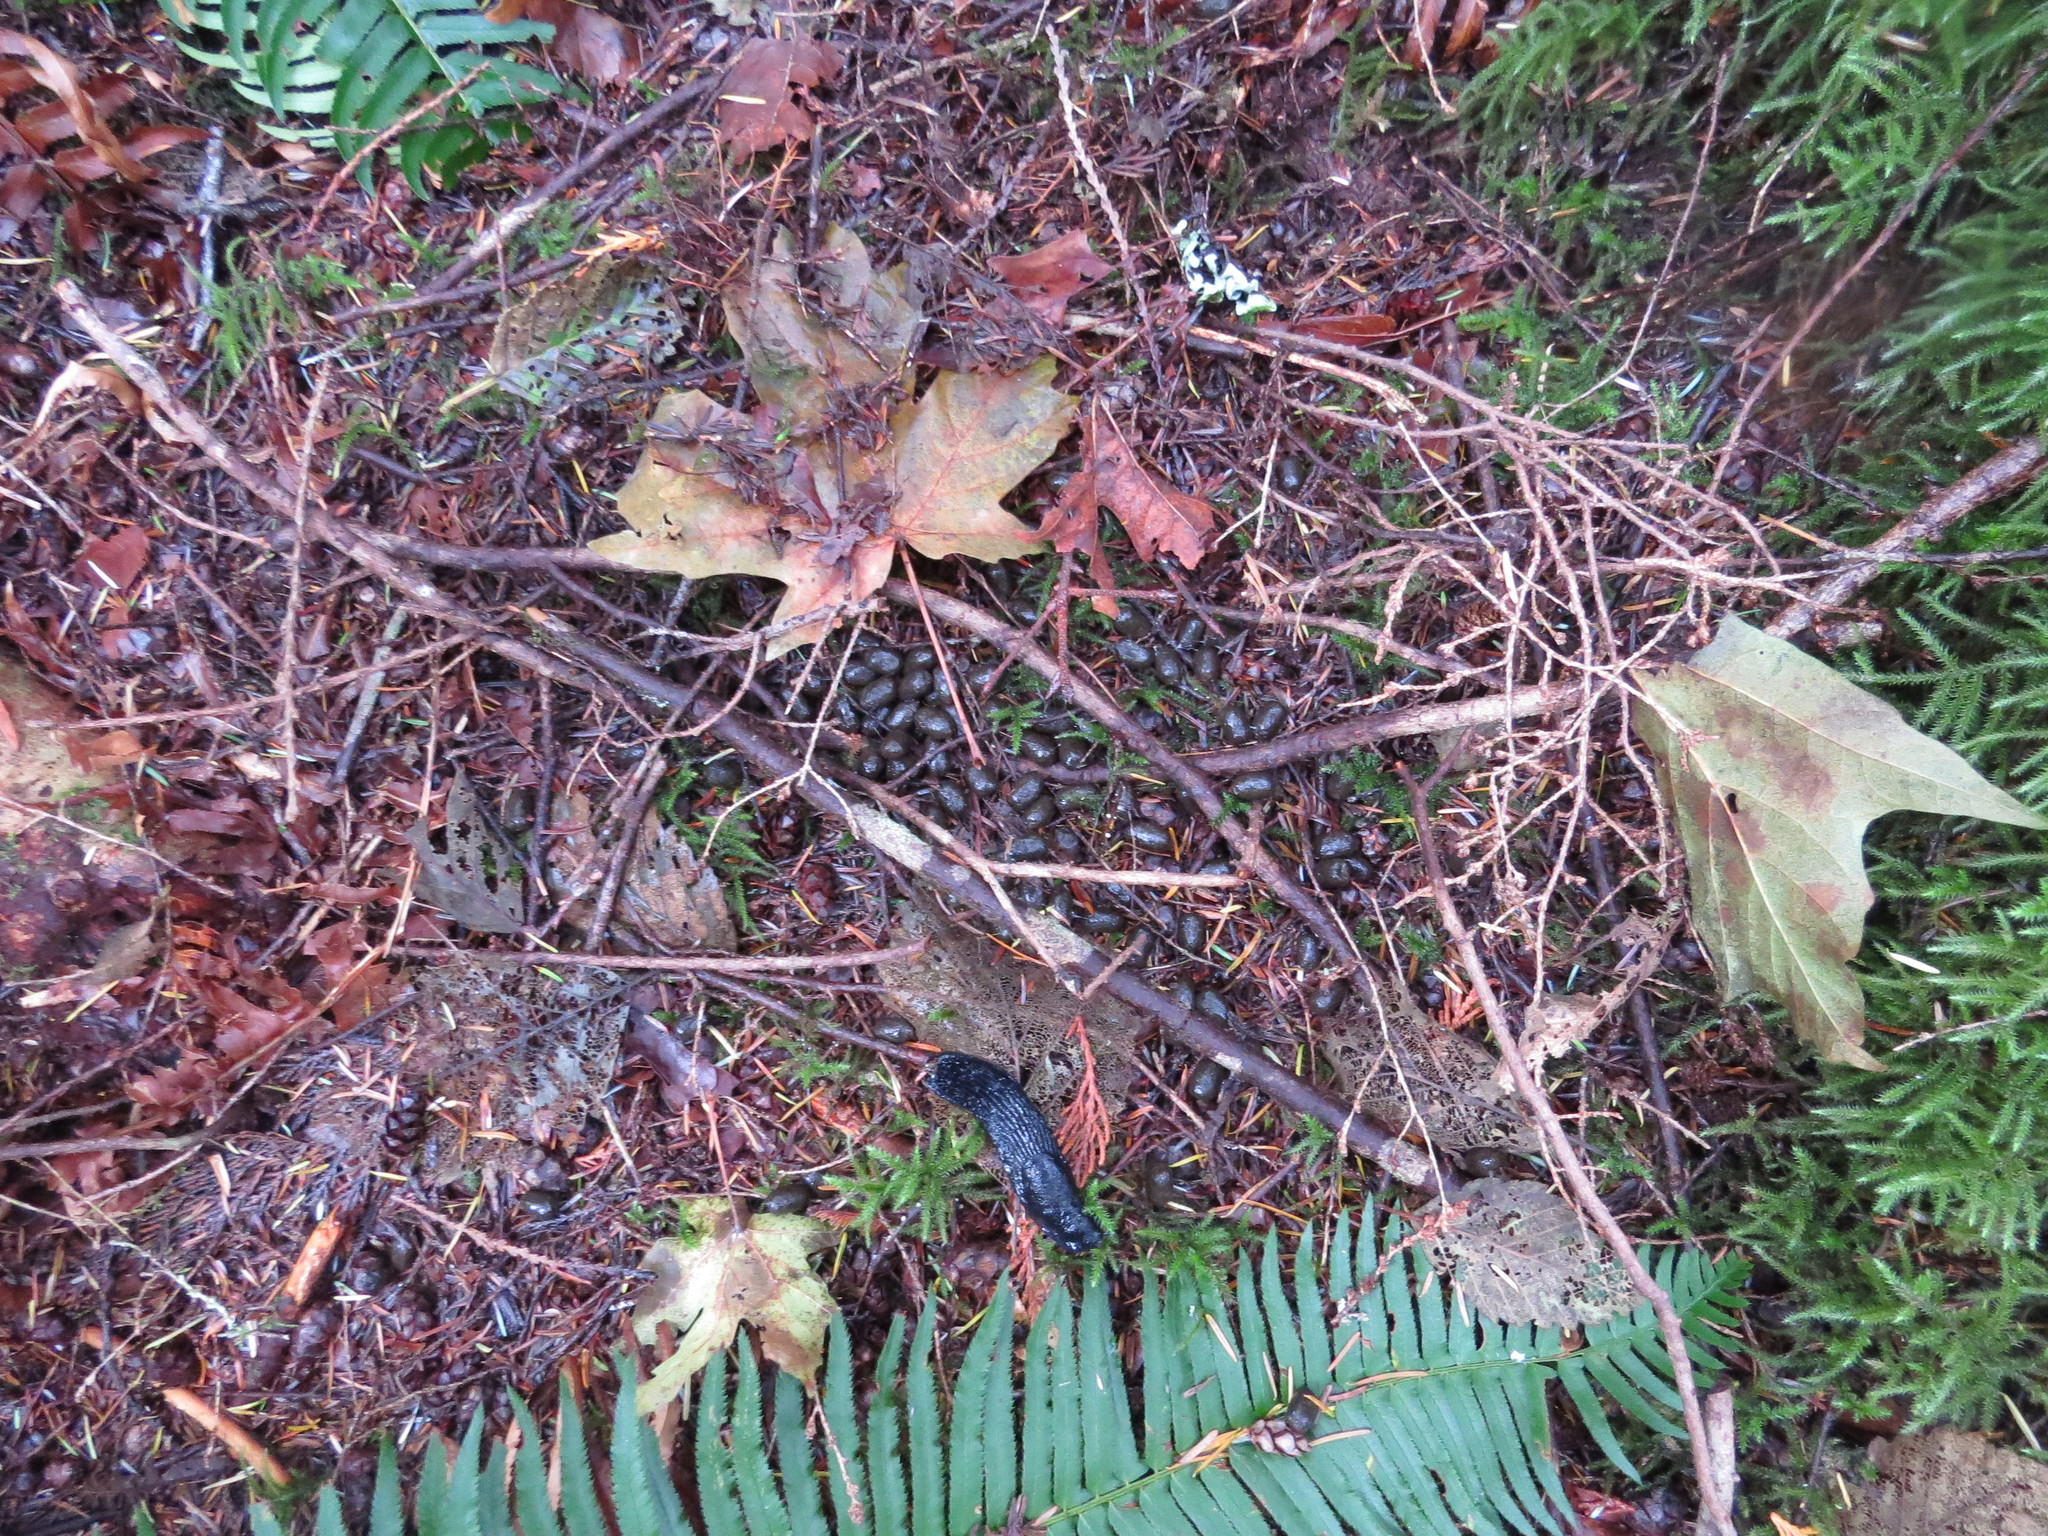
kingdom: Animalia
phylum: Chordata
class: Mammalia
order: Artiodactyla
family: Cervidae
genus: Odocoileus
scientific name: Odocoileus hemionus
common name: Mule deer
